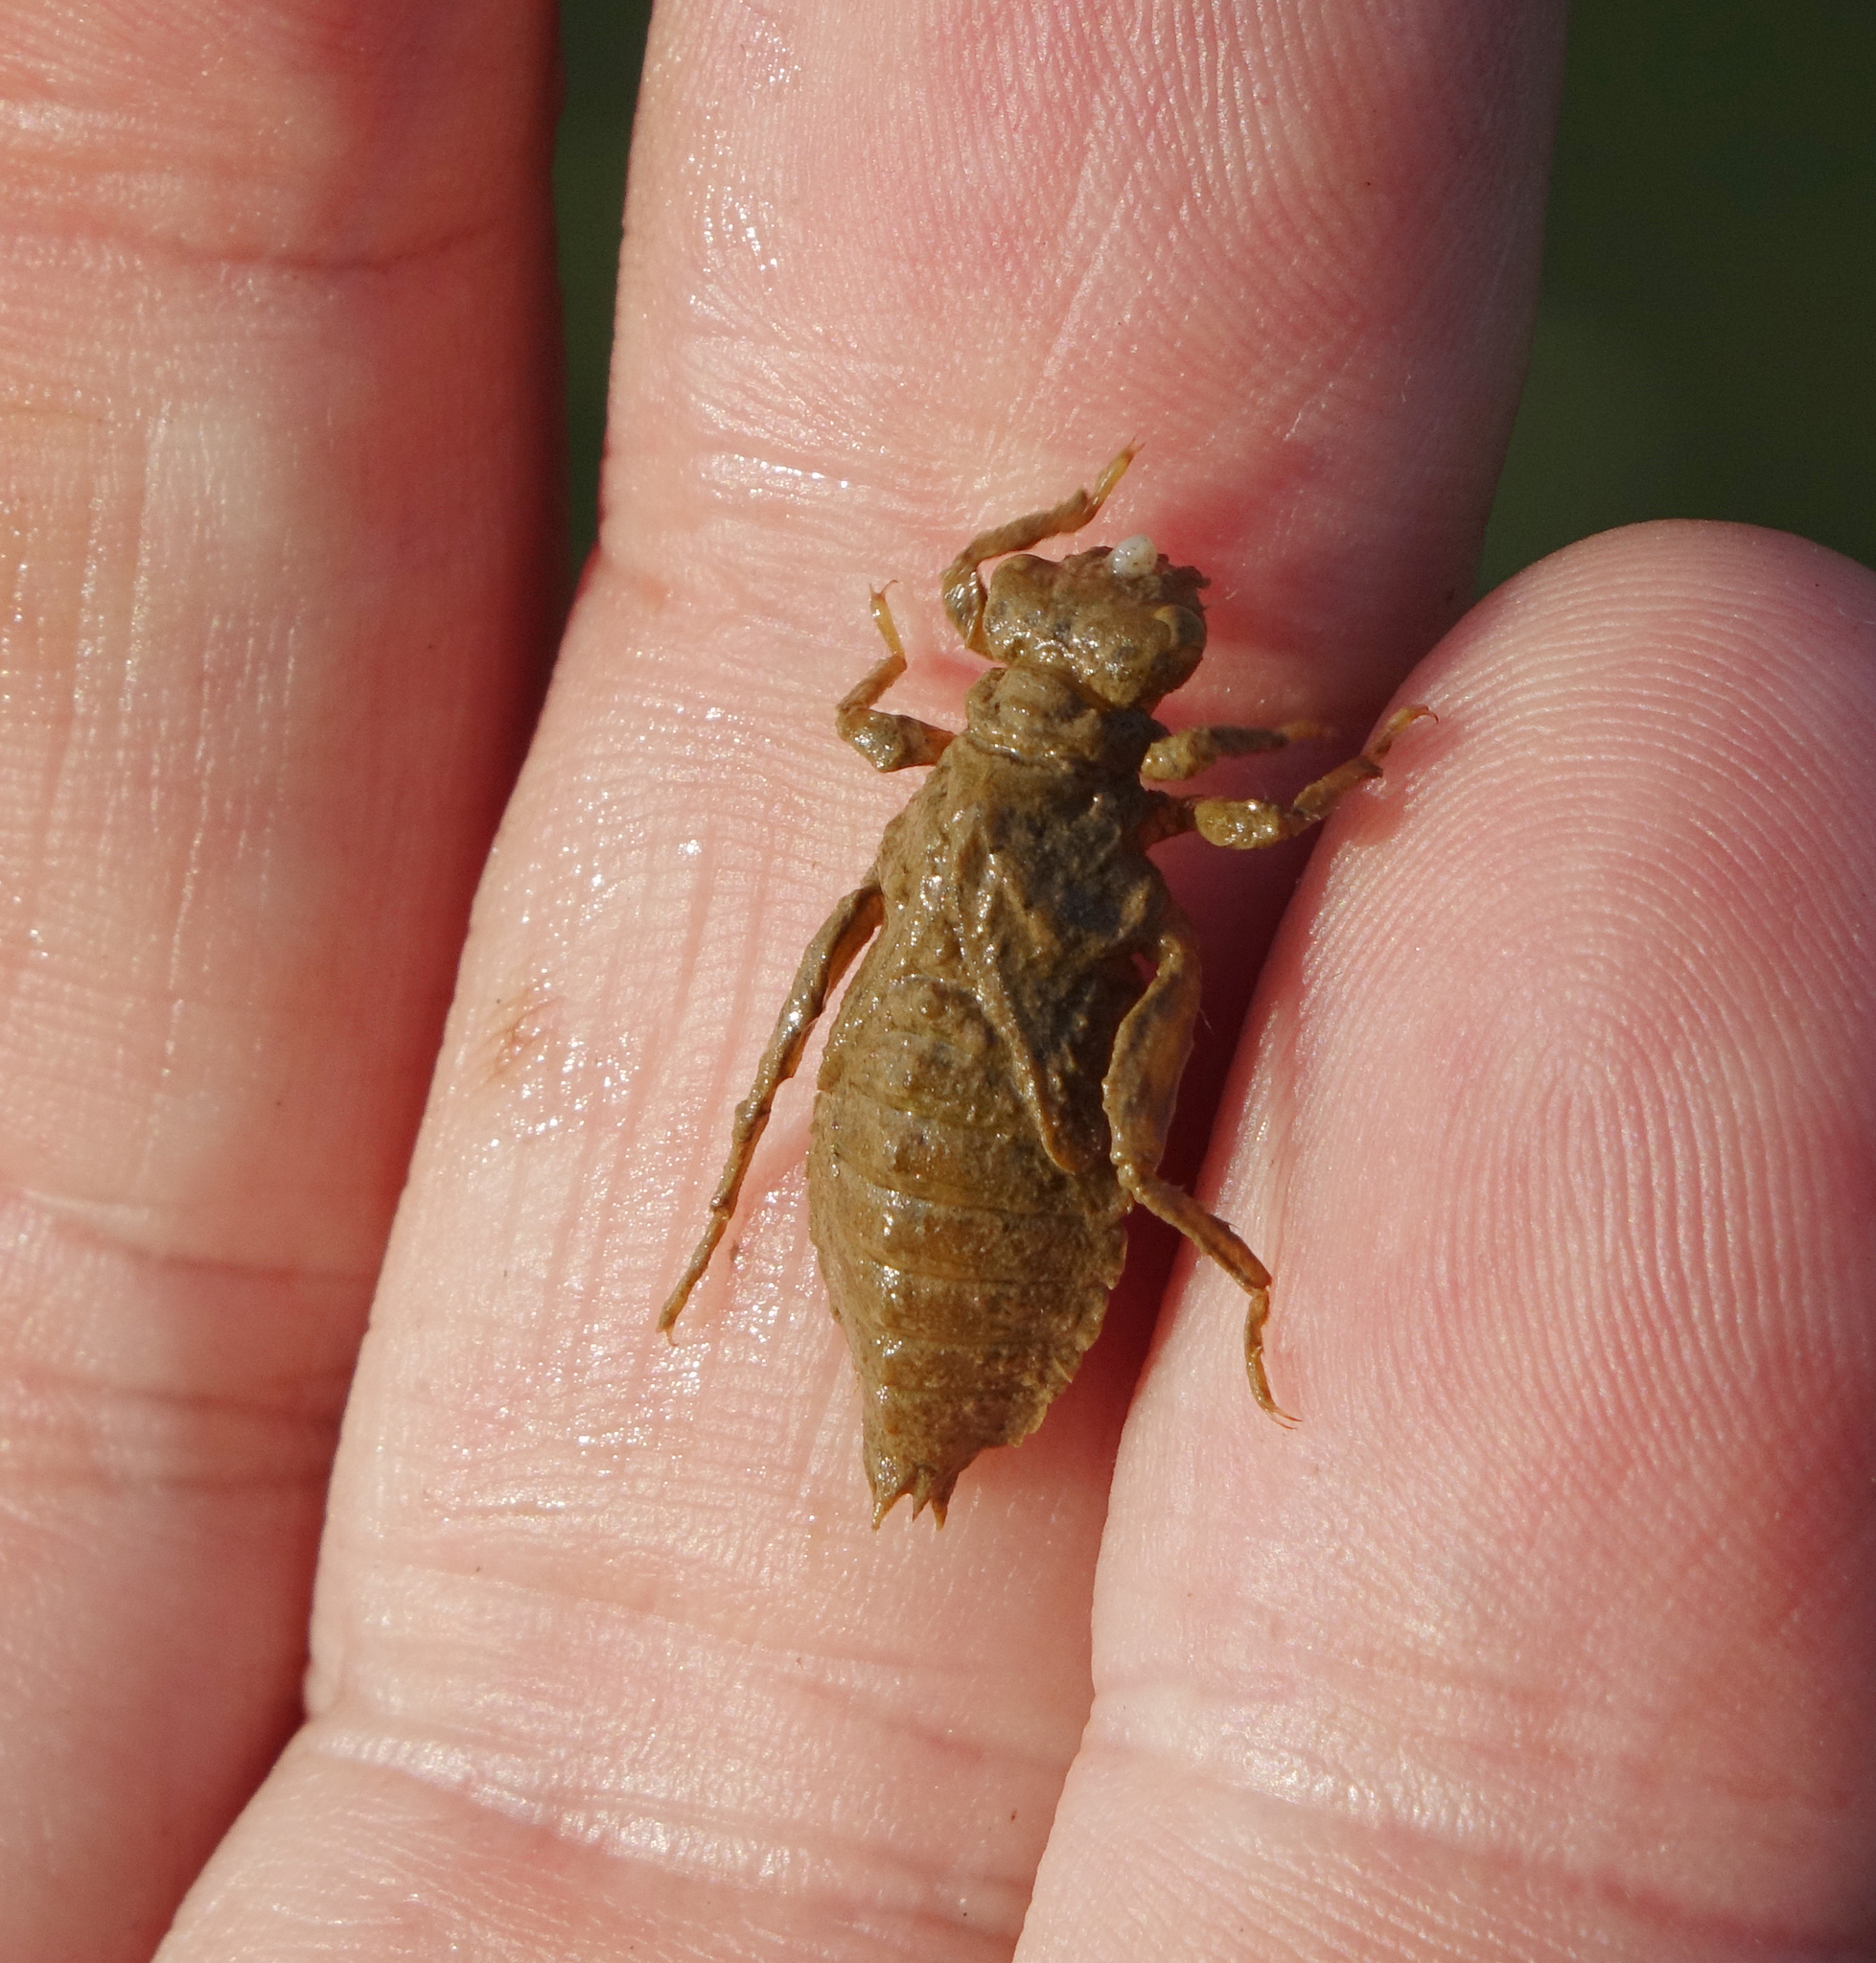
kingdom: Animalia
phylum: Arthropoda
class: Insecta
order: Odonata
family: Gomphidae
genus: Onychogomphus
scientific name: Onychogomphus forcipatus
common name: Small pincertail
